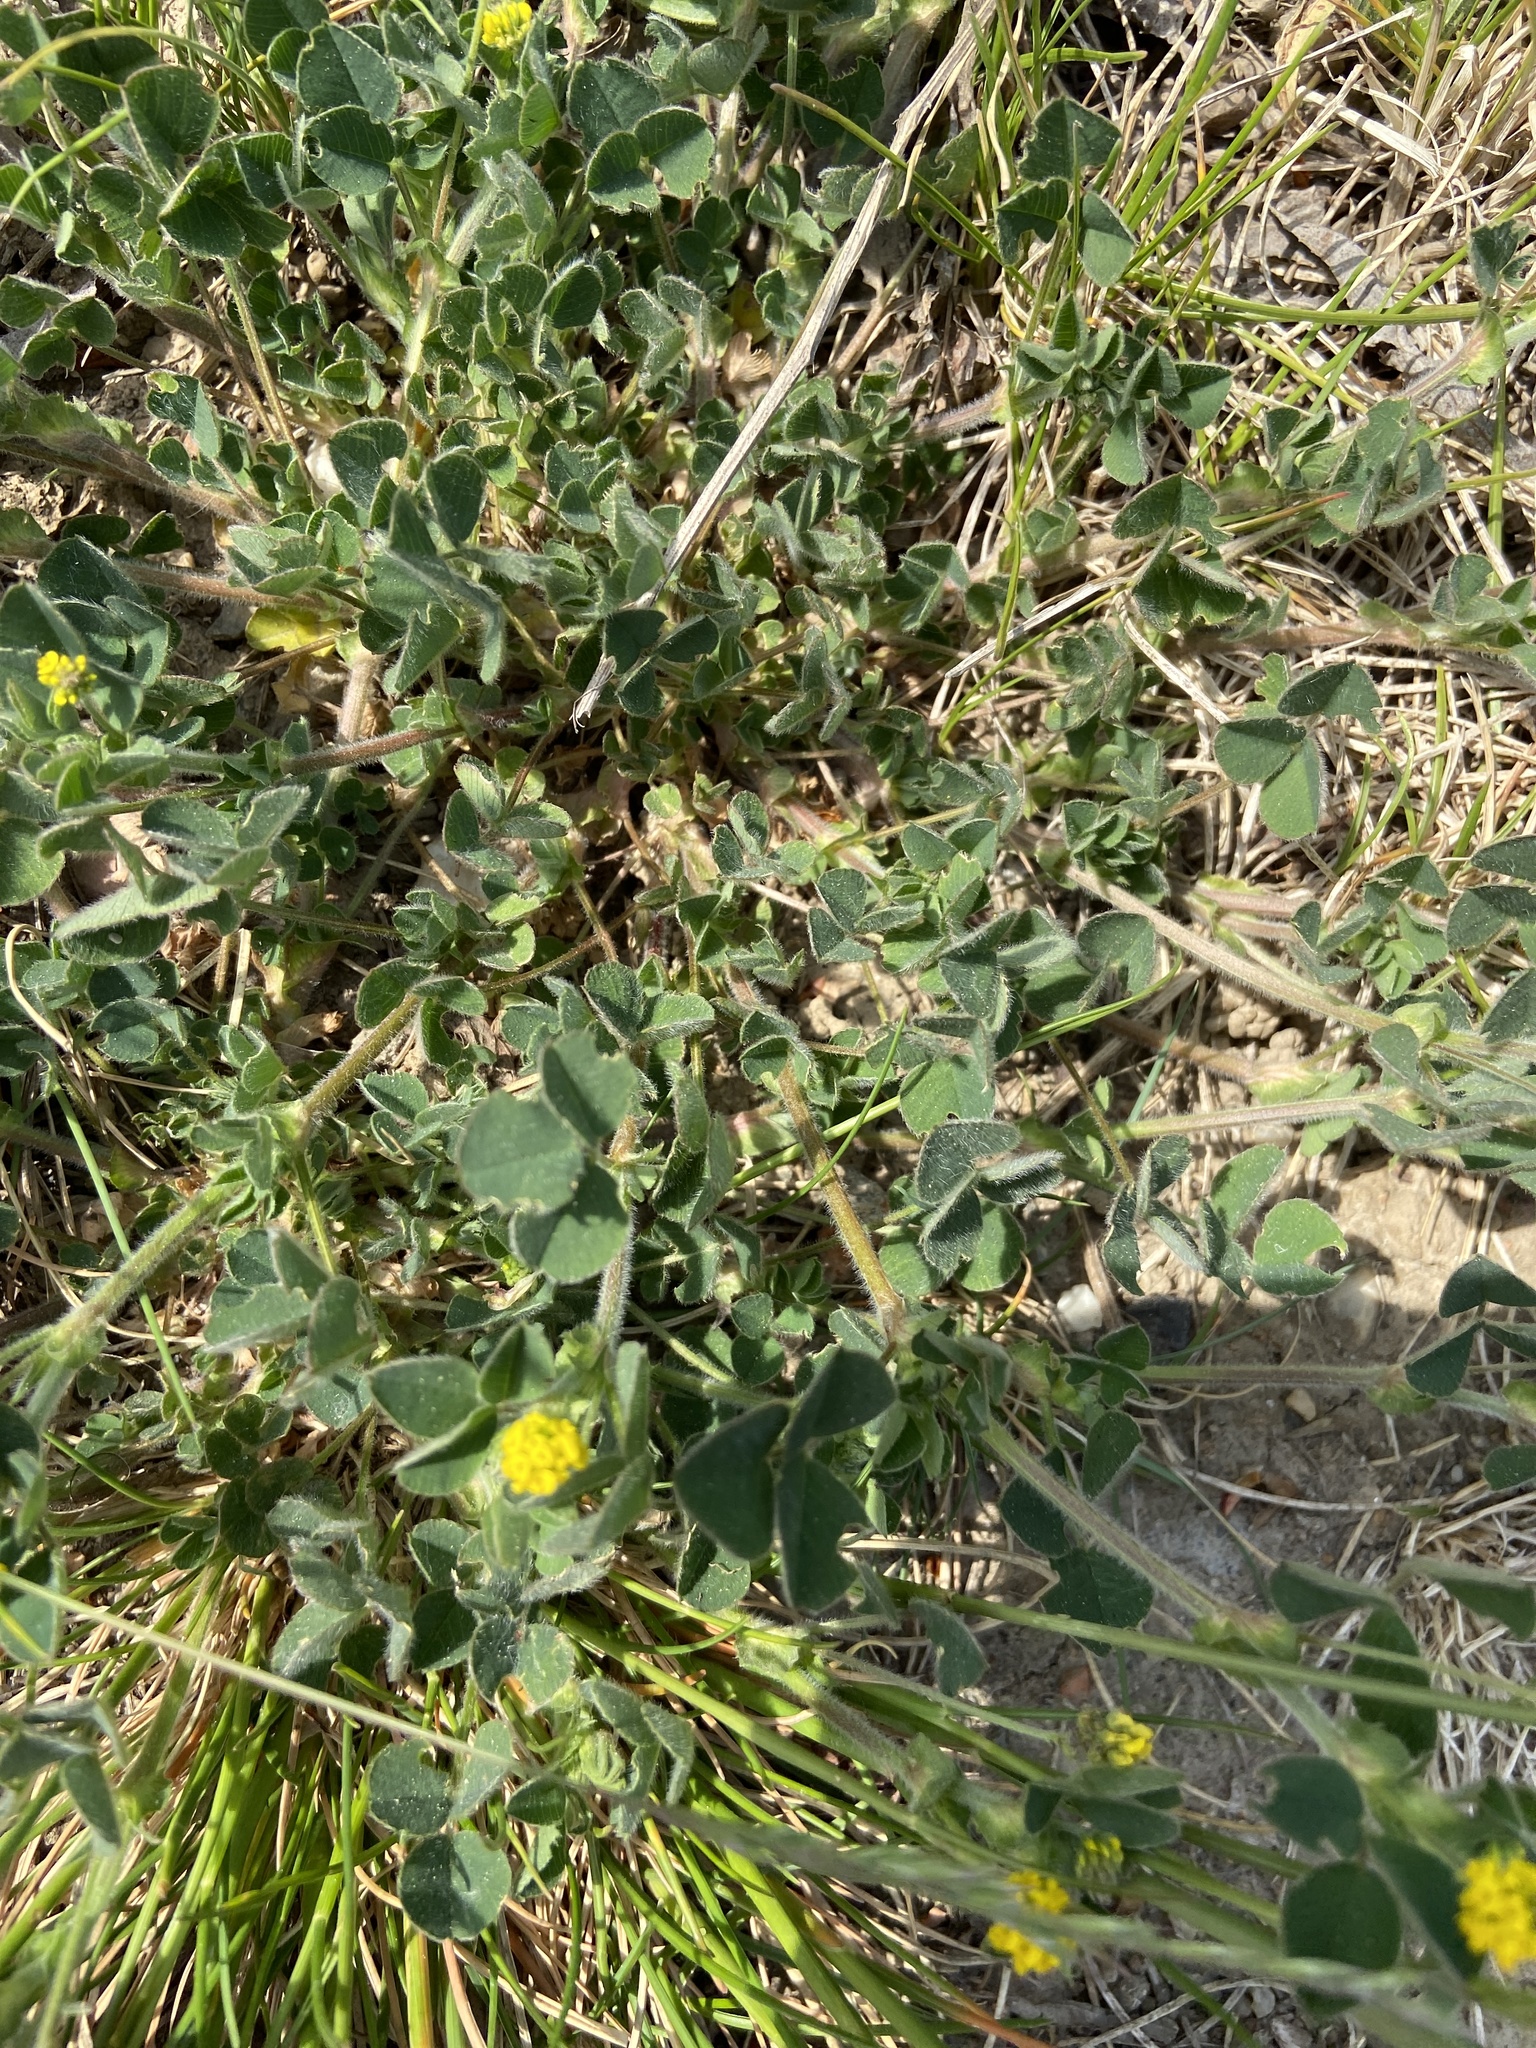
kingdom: Plantae
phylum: Tracheophyta
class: Magnoliopsida
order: Fabales
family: Fabaceae
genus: Medicago
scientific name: Medicago lupulina
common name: Black medick
